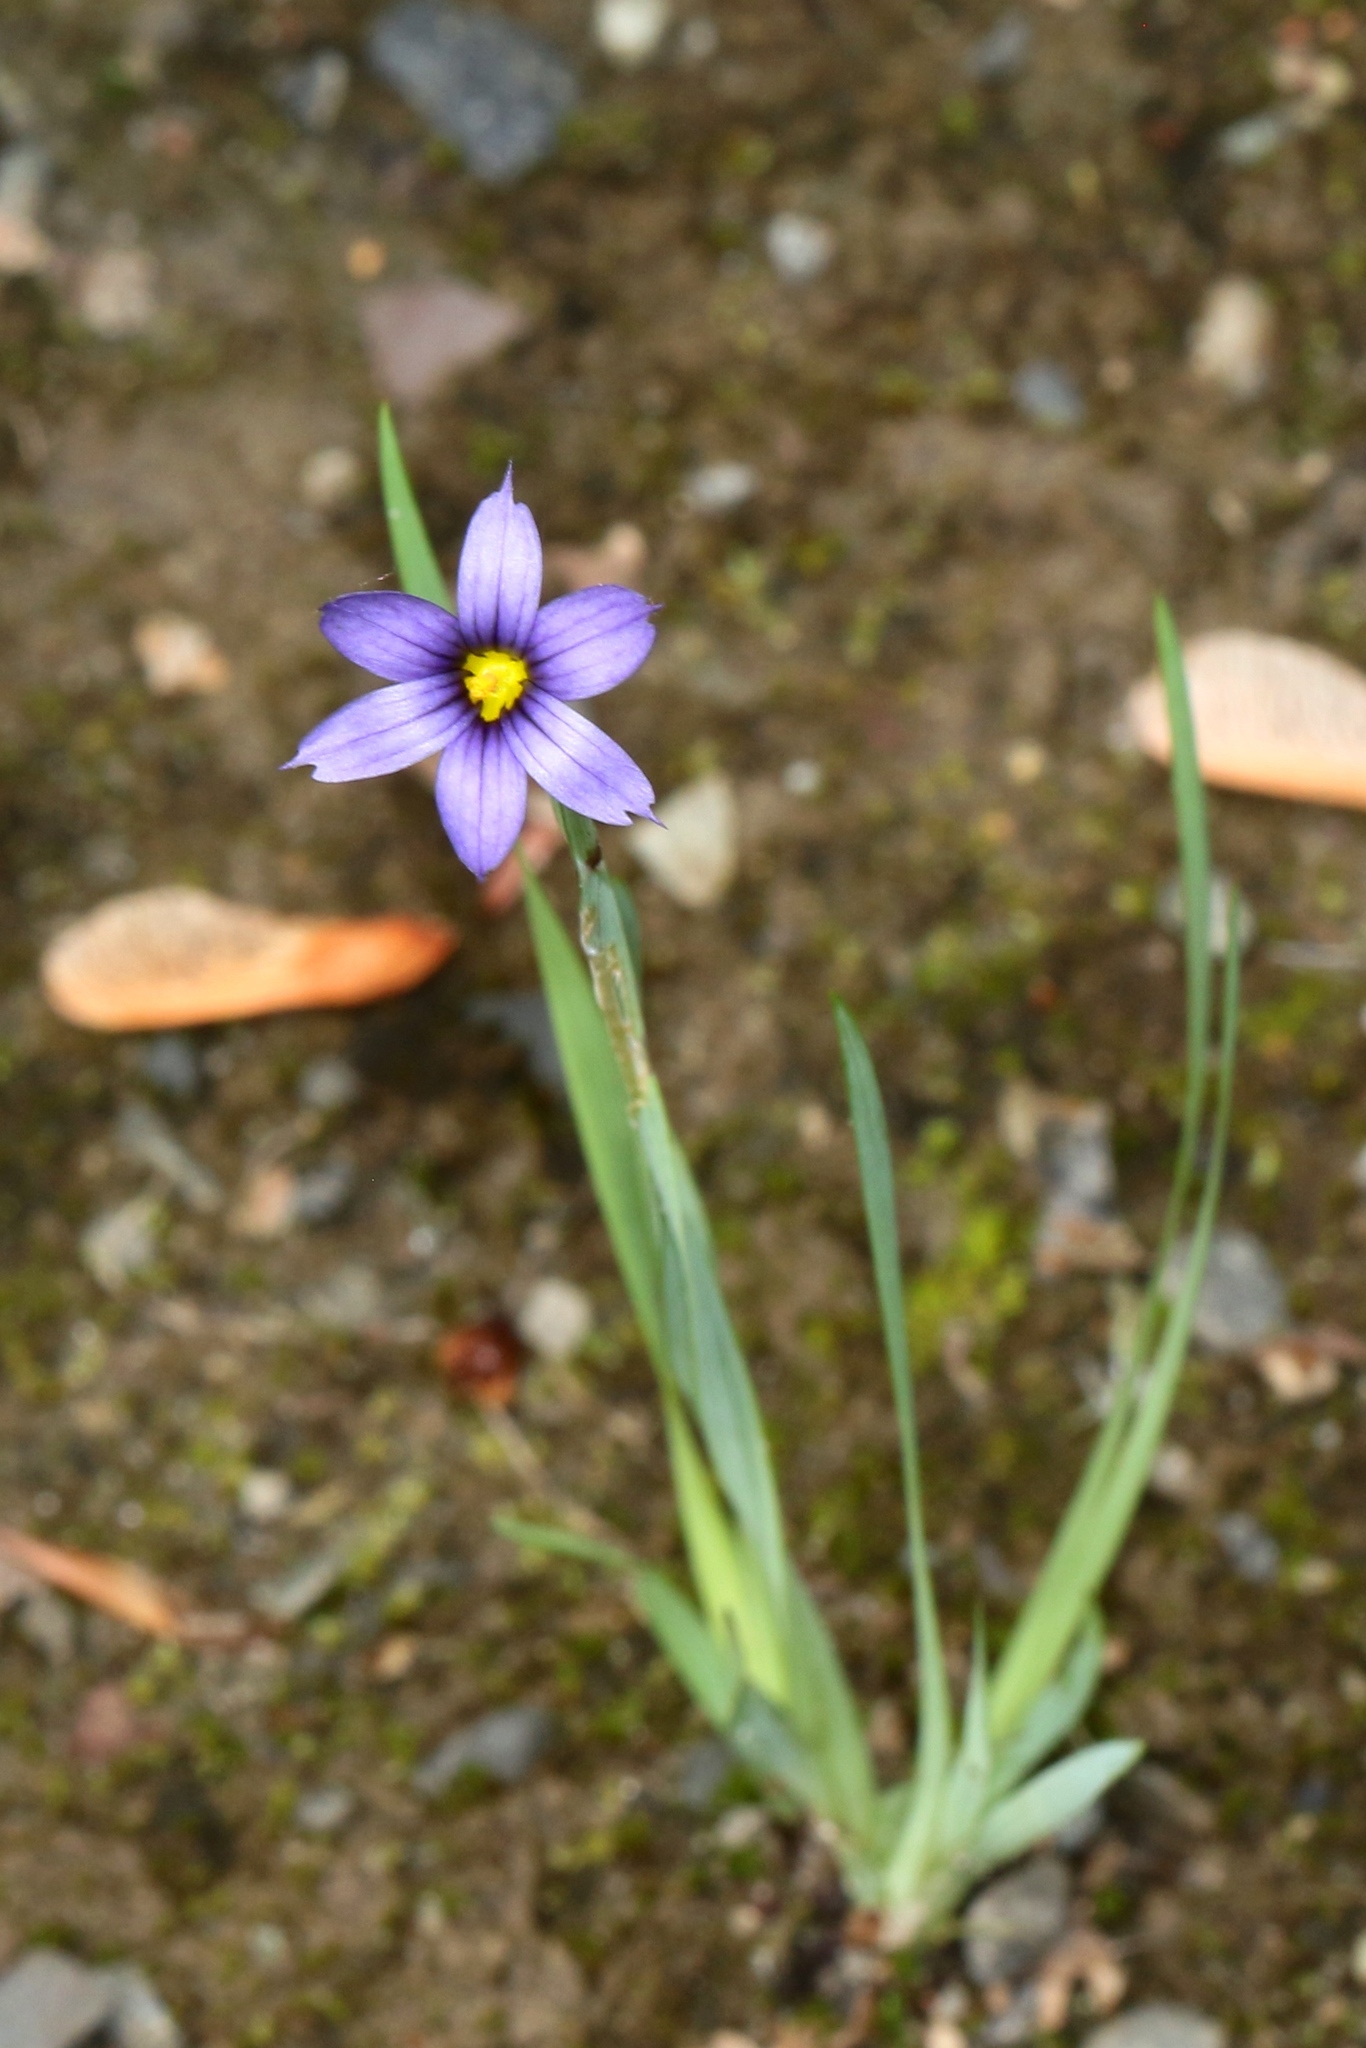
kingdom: Plantae
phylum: Tracheophyta
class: Liliopsida
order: Asparagales
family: Iridaceae
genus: Sisyrinchium
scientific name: Sisyrinchium montanum
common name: American blue-eyed-grass
